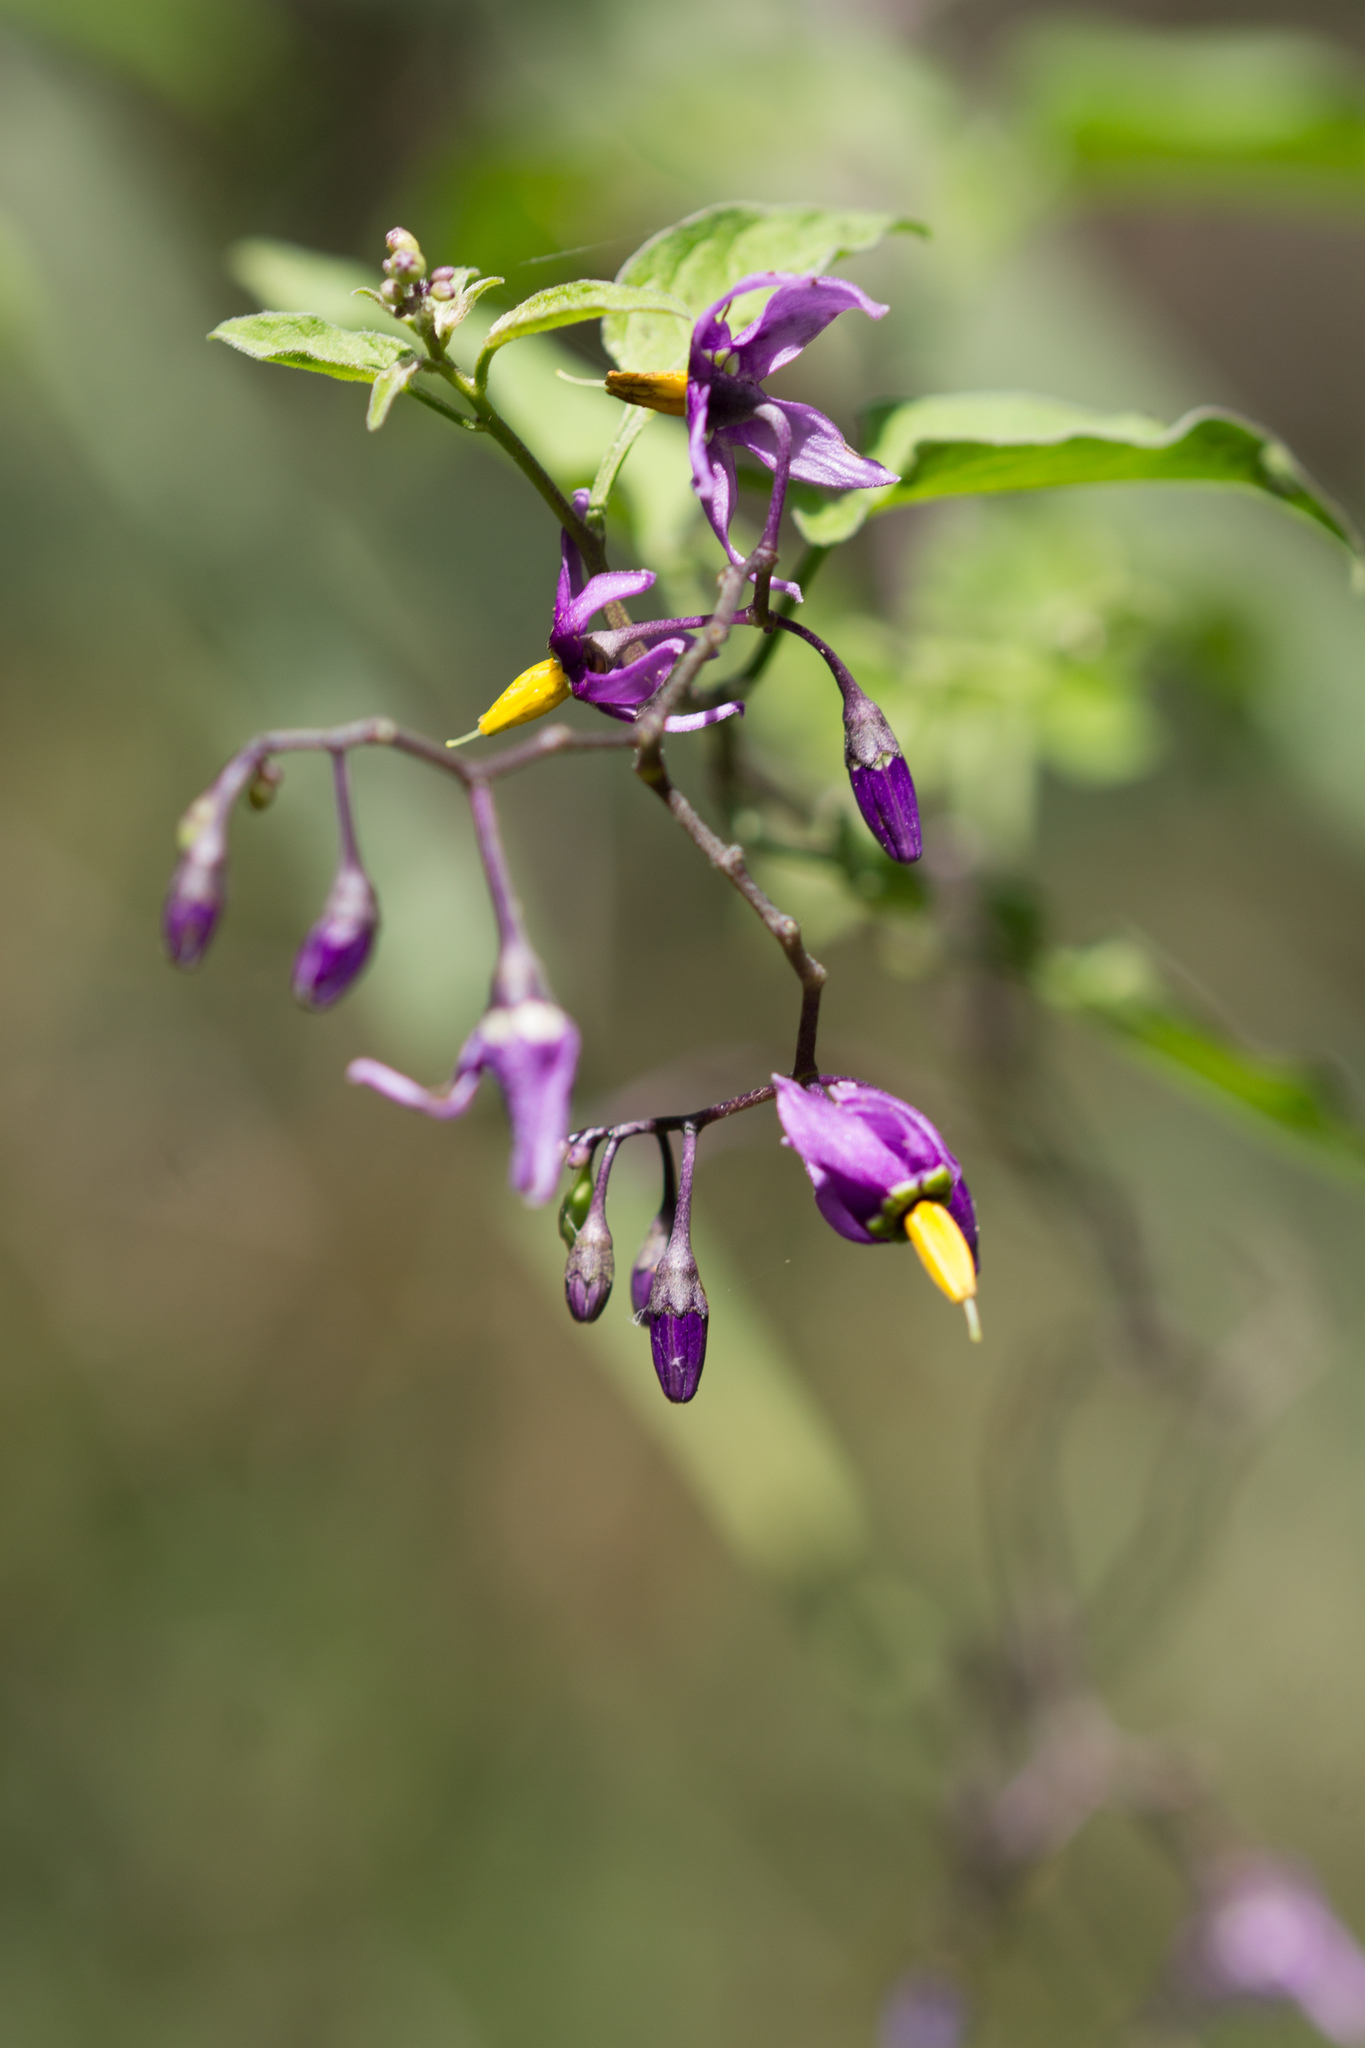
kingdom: Plantae
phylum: Tracheophyta
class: Magnoliopsida
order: Solanales
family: Solanaceae
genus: Solanum
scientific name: Solanum dulcamara
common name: Climbing nightshade
